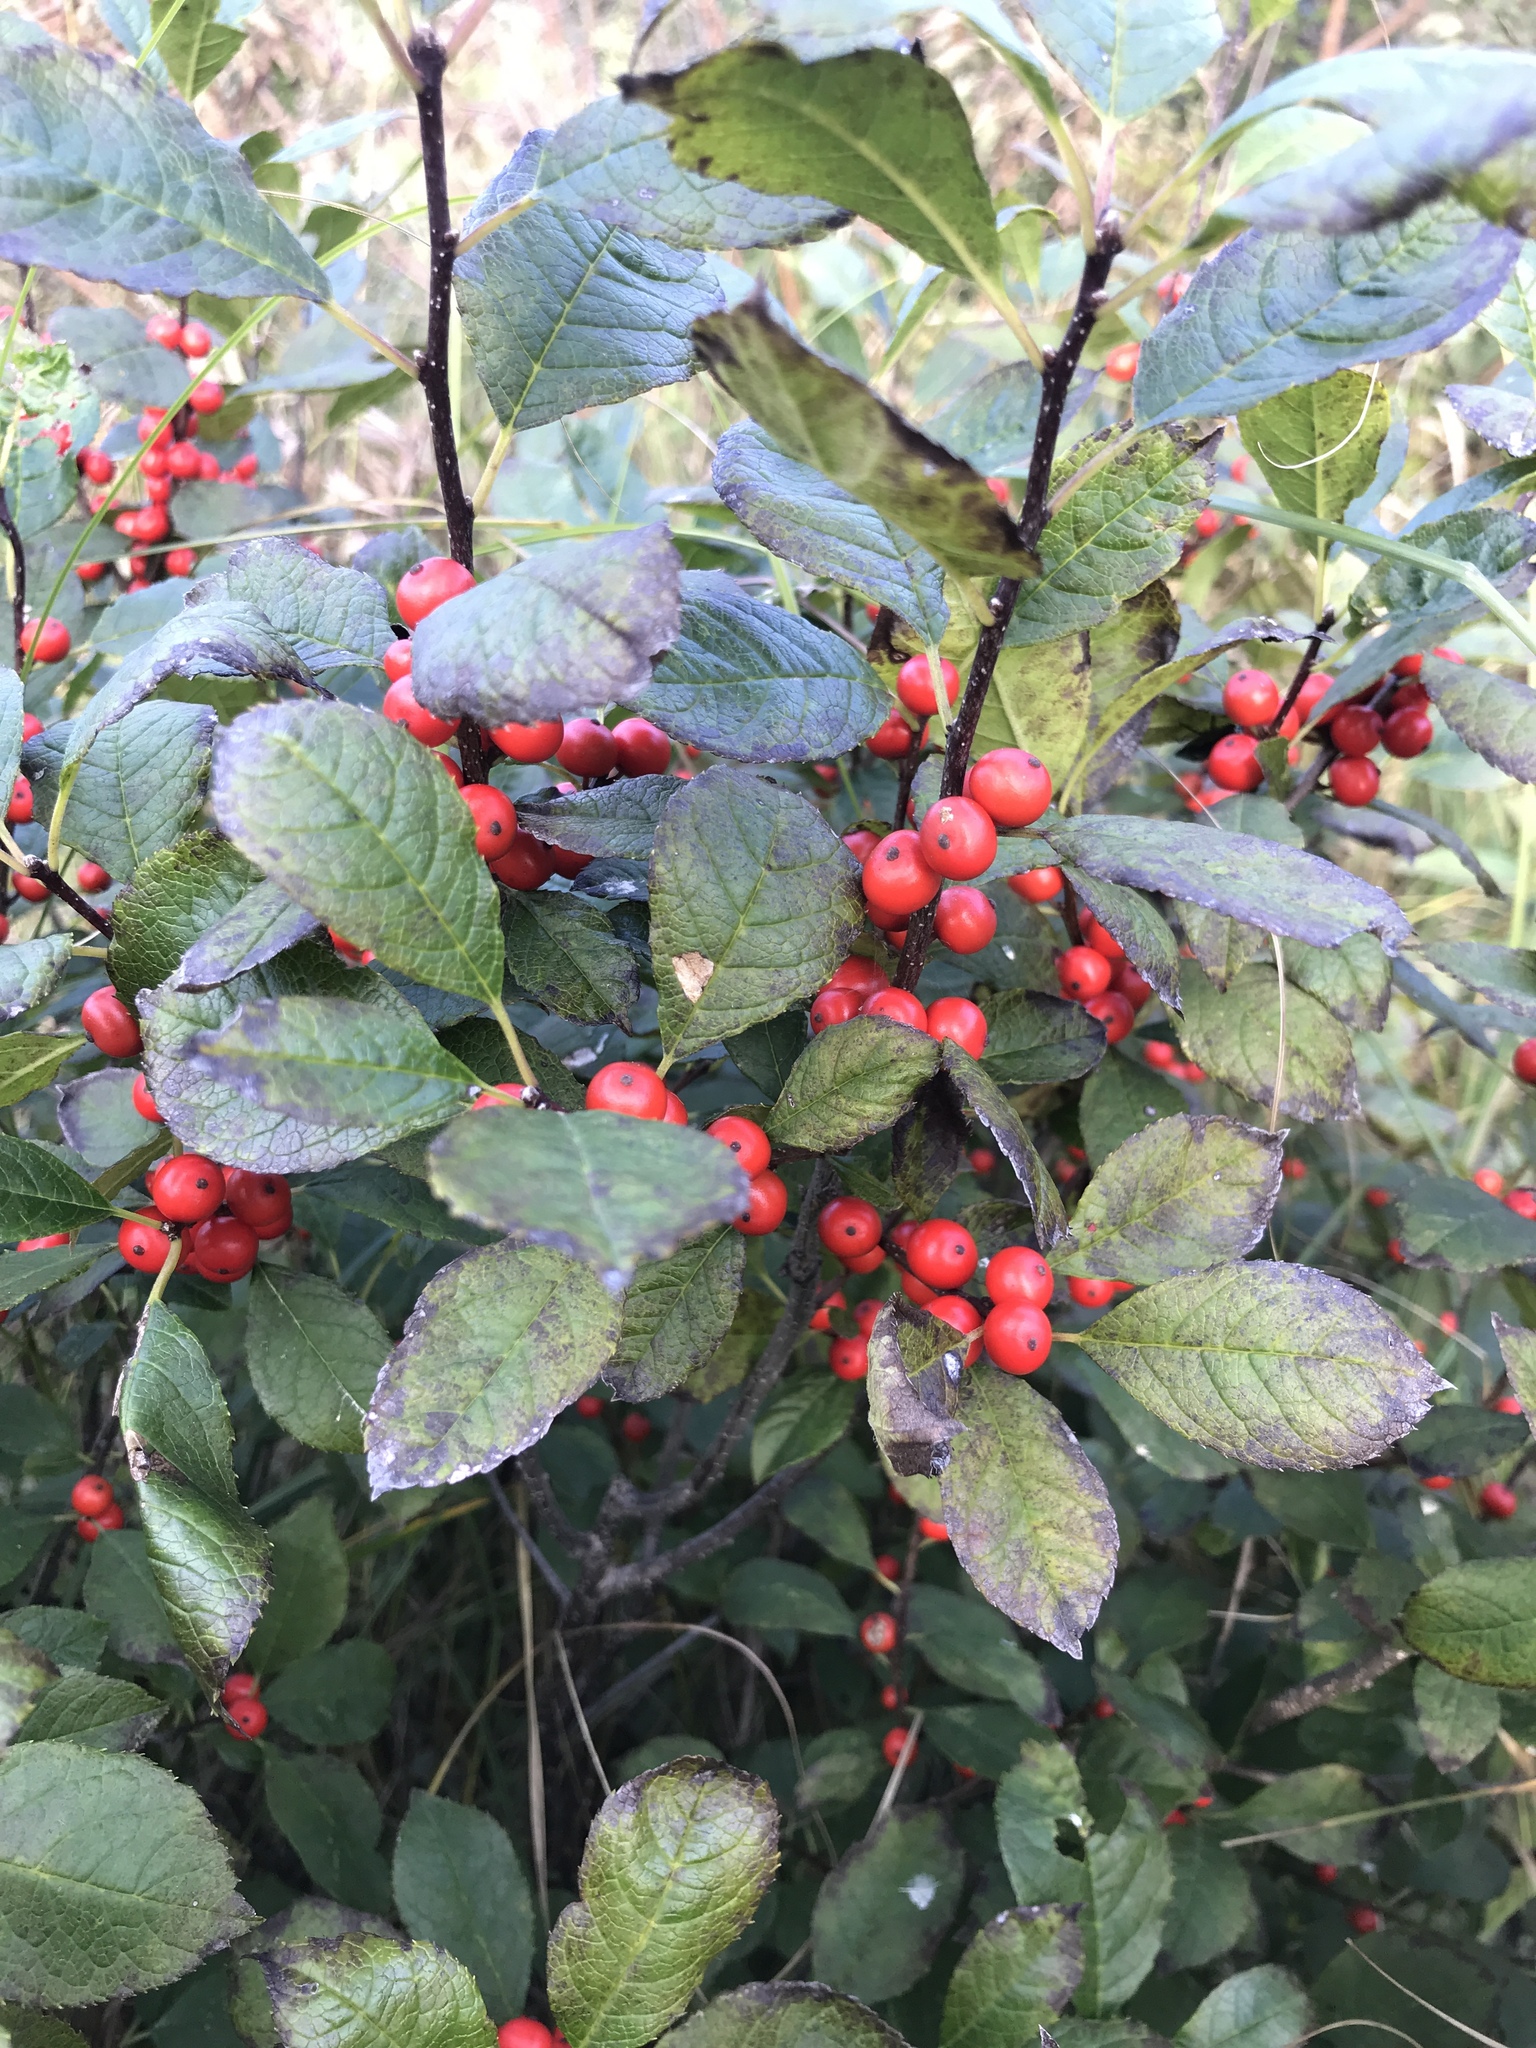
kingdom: Plantae
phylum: Tracheophyta
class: Magnoliopsida
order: Aquifoliales
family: Aquifoliaceae
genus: Ilex
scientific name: Ilex verticillata
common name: Virginia winterberry
